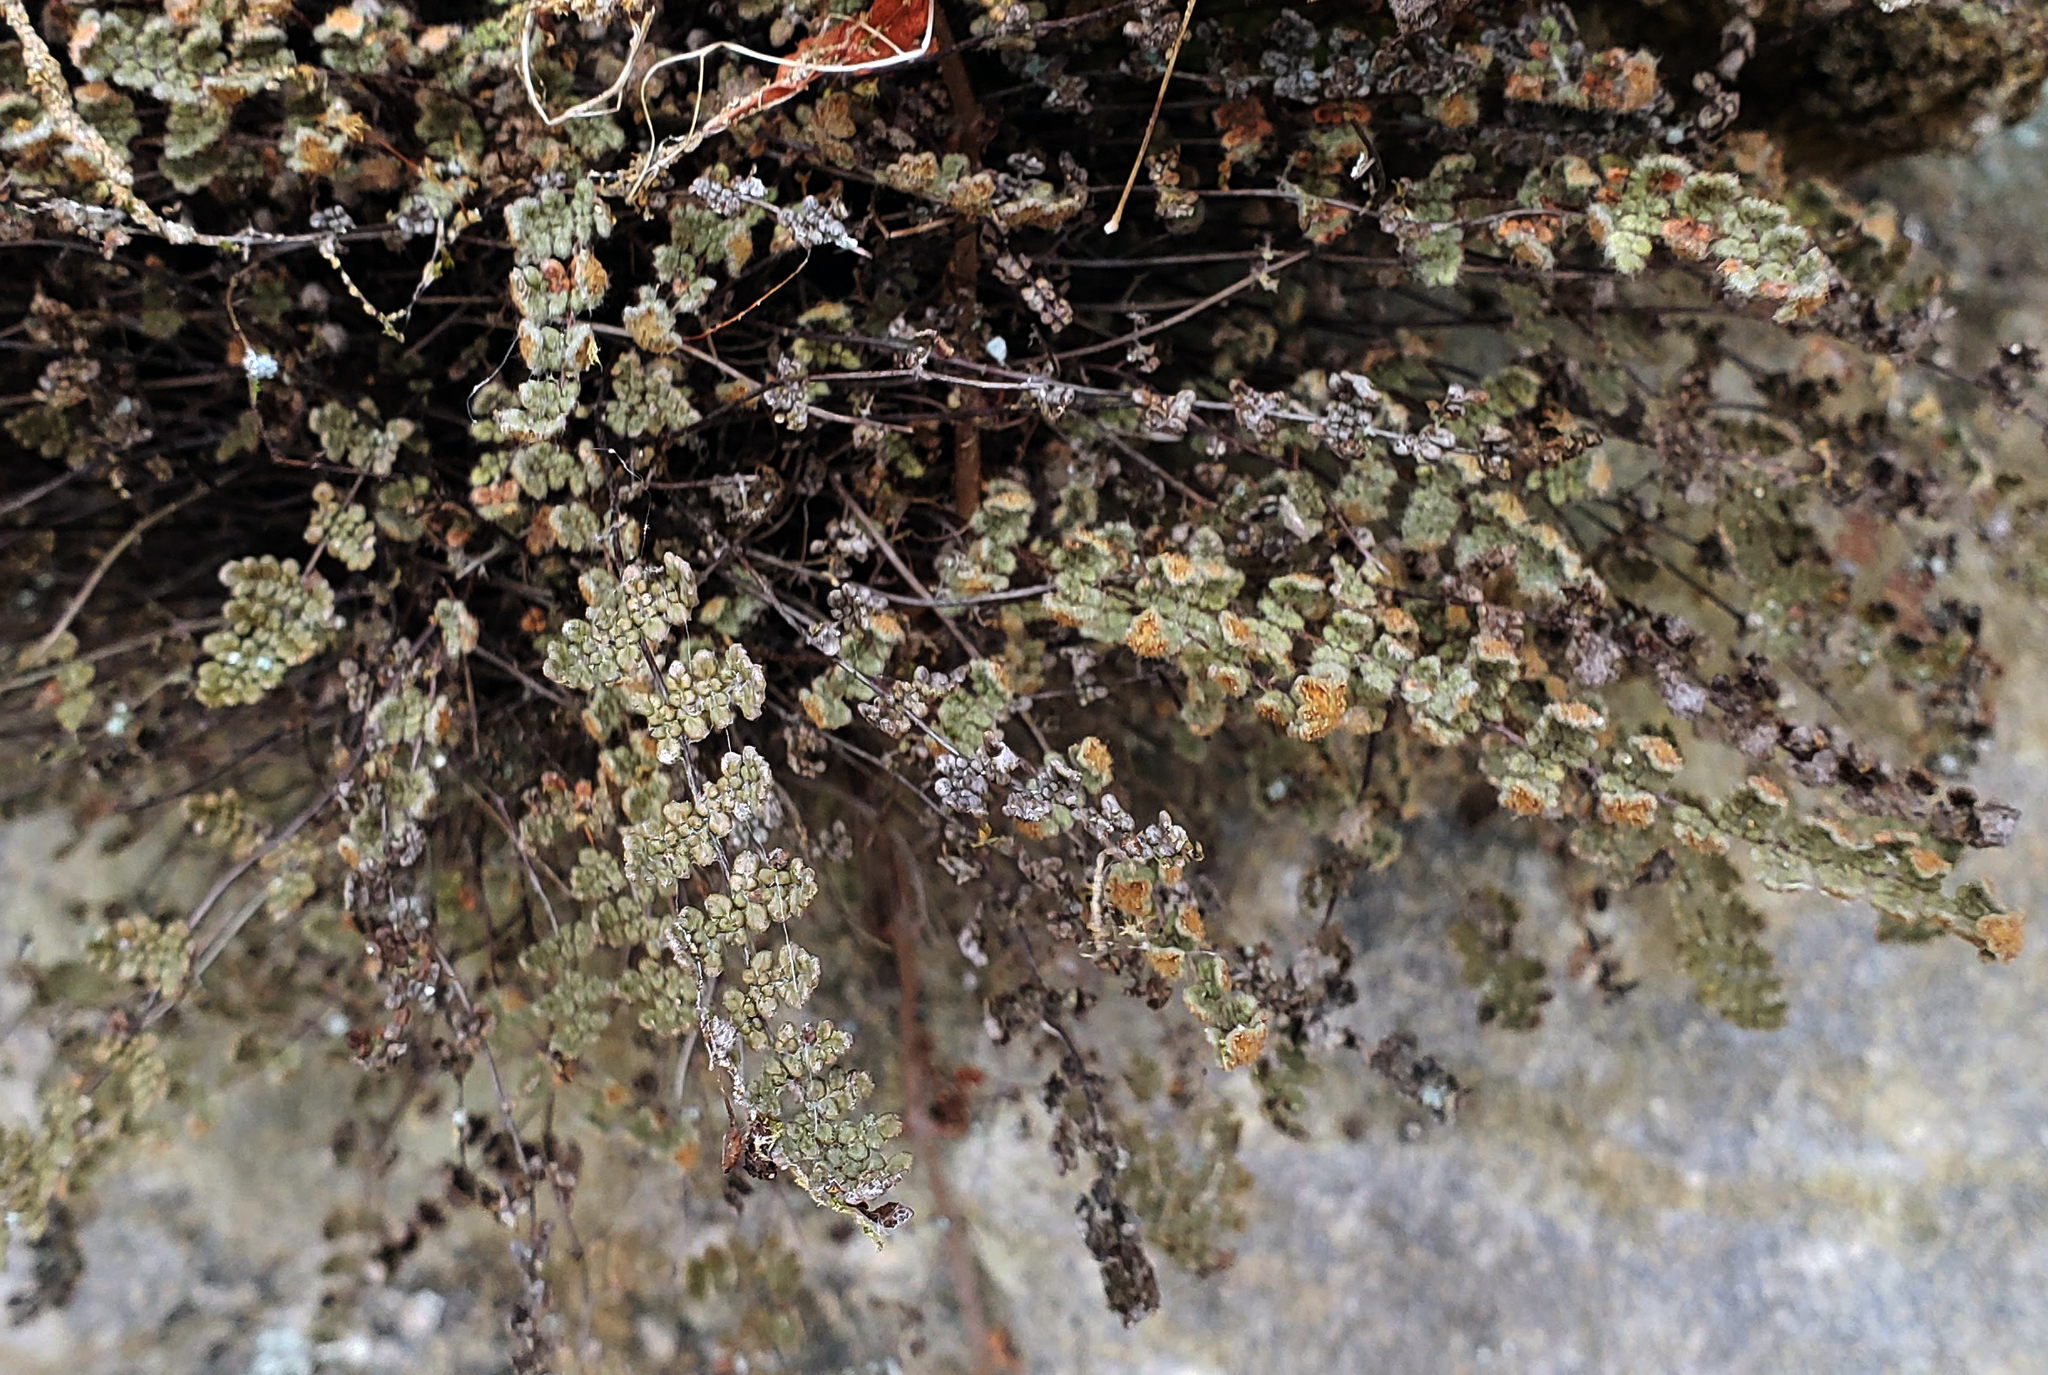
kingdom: Plantae
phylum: Tracheophyta
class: Polypodiopsida
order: Polypodiales
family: Pteridaceae
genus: Myriopteris
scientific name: Myriopteris gracilis
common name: Fee's lip fern
